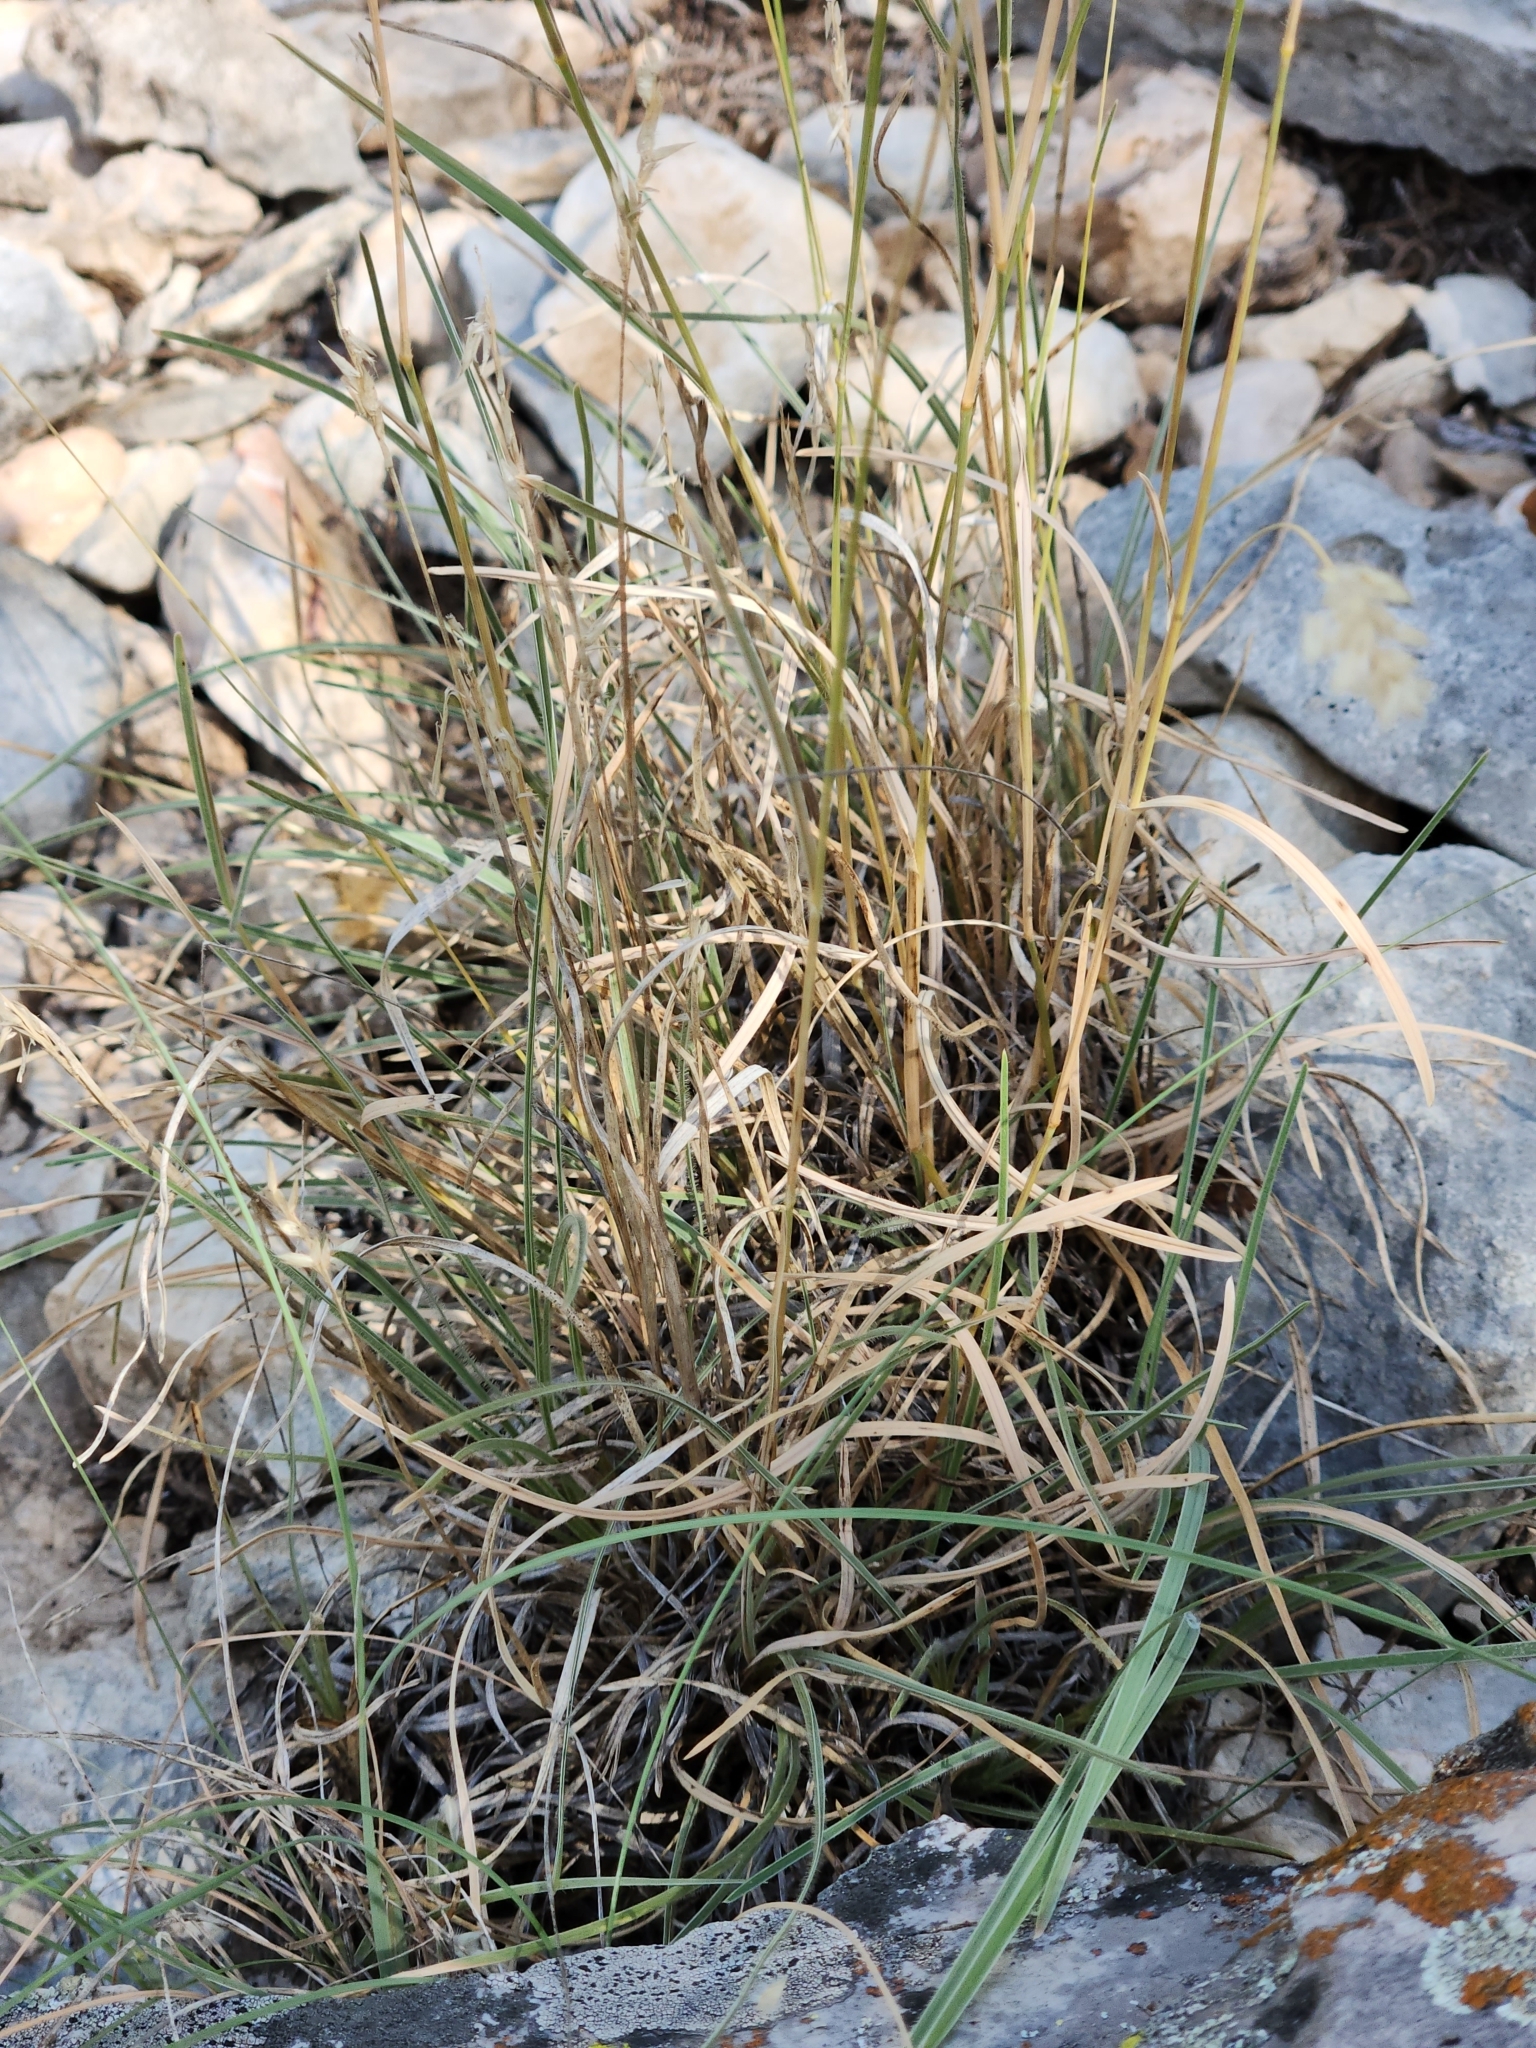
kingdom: Plantae
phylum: Tracheophyta
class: Liliopsida
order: Poales
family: Poaceae
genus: Erioneuron
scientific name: Erioneuron pilosum
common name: Hairy woolly grass
